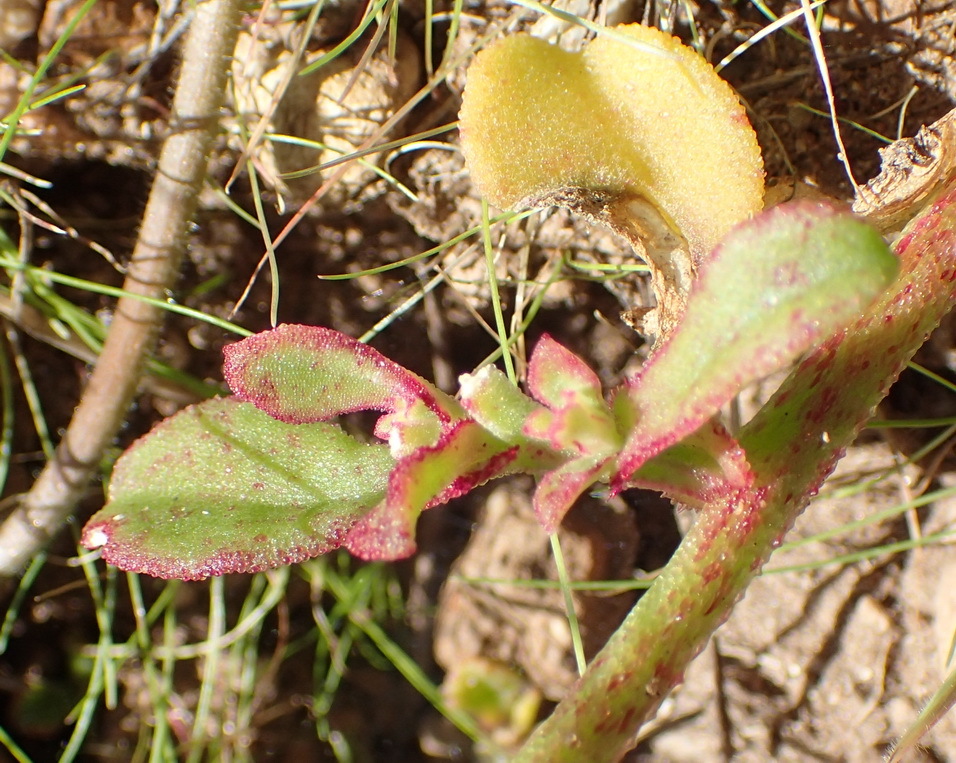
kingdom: Plantae
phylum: Tracheophyta
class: Magnoliopsida
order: Caryophyllales
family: Aizoaceae
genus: Mesembryanthemum
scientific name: Mesembryanthemum aitonis
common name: Angled iceplant
